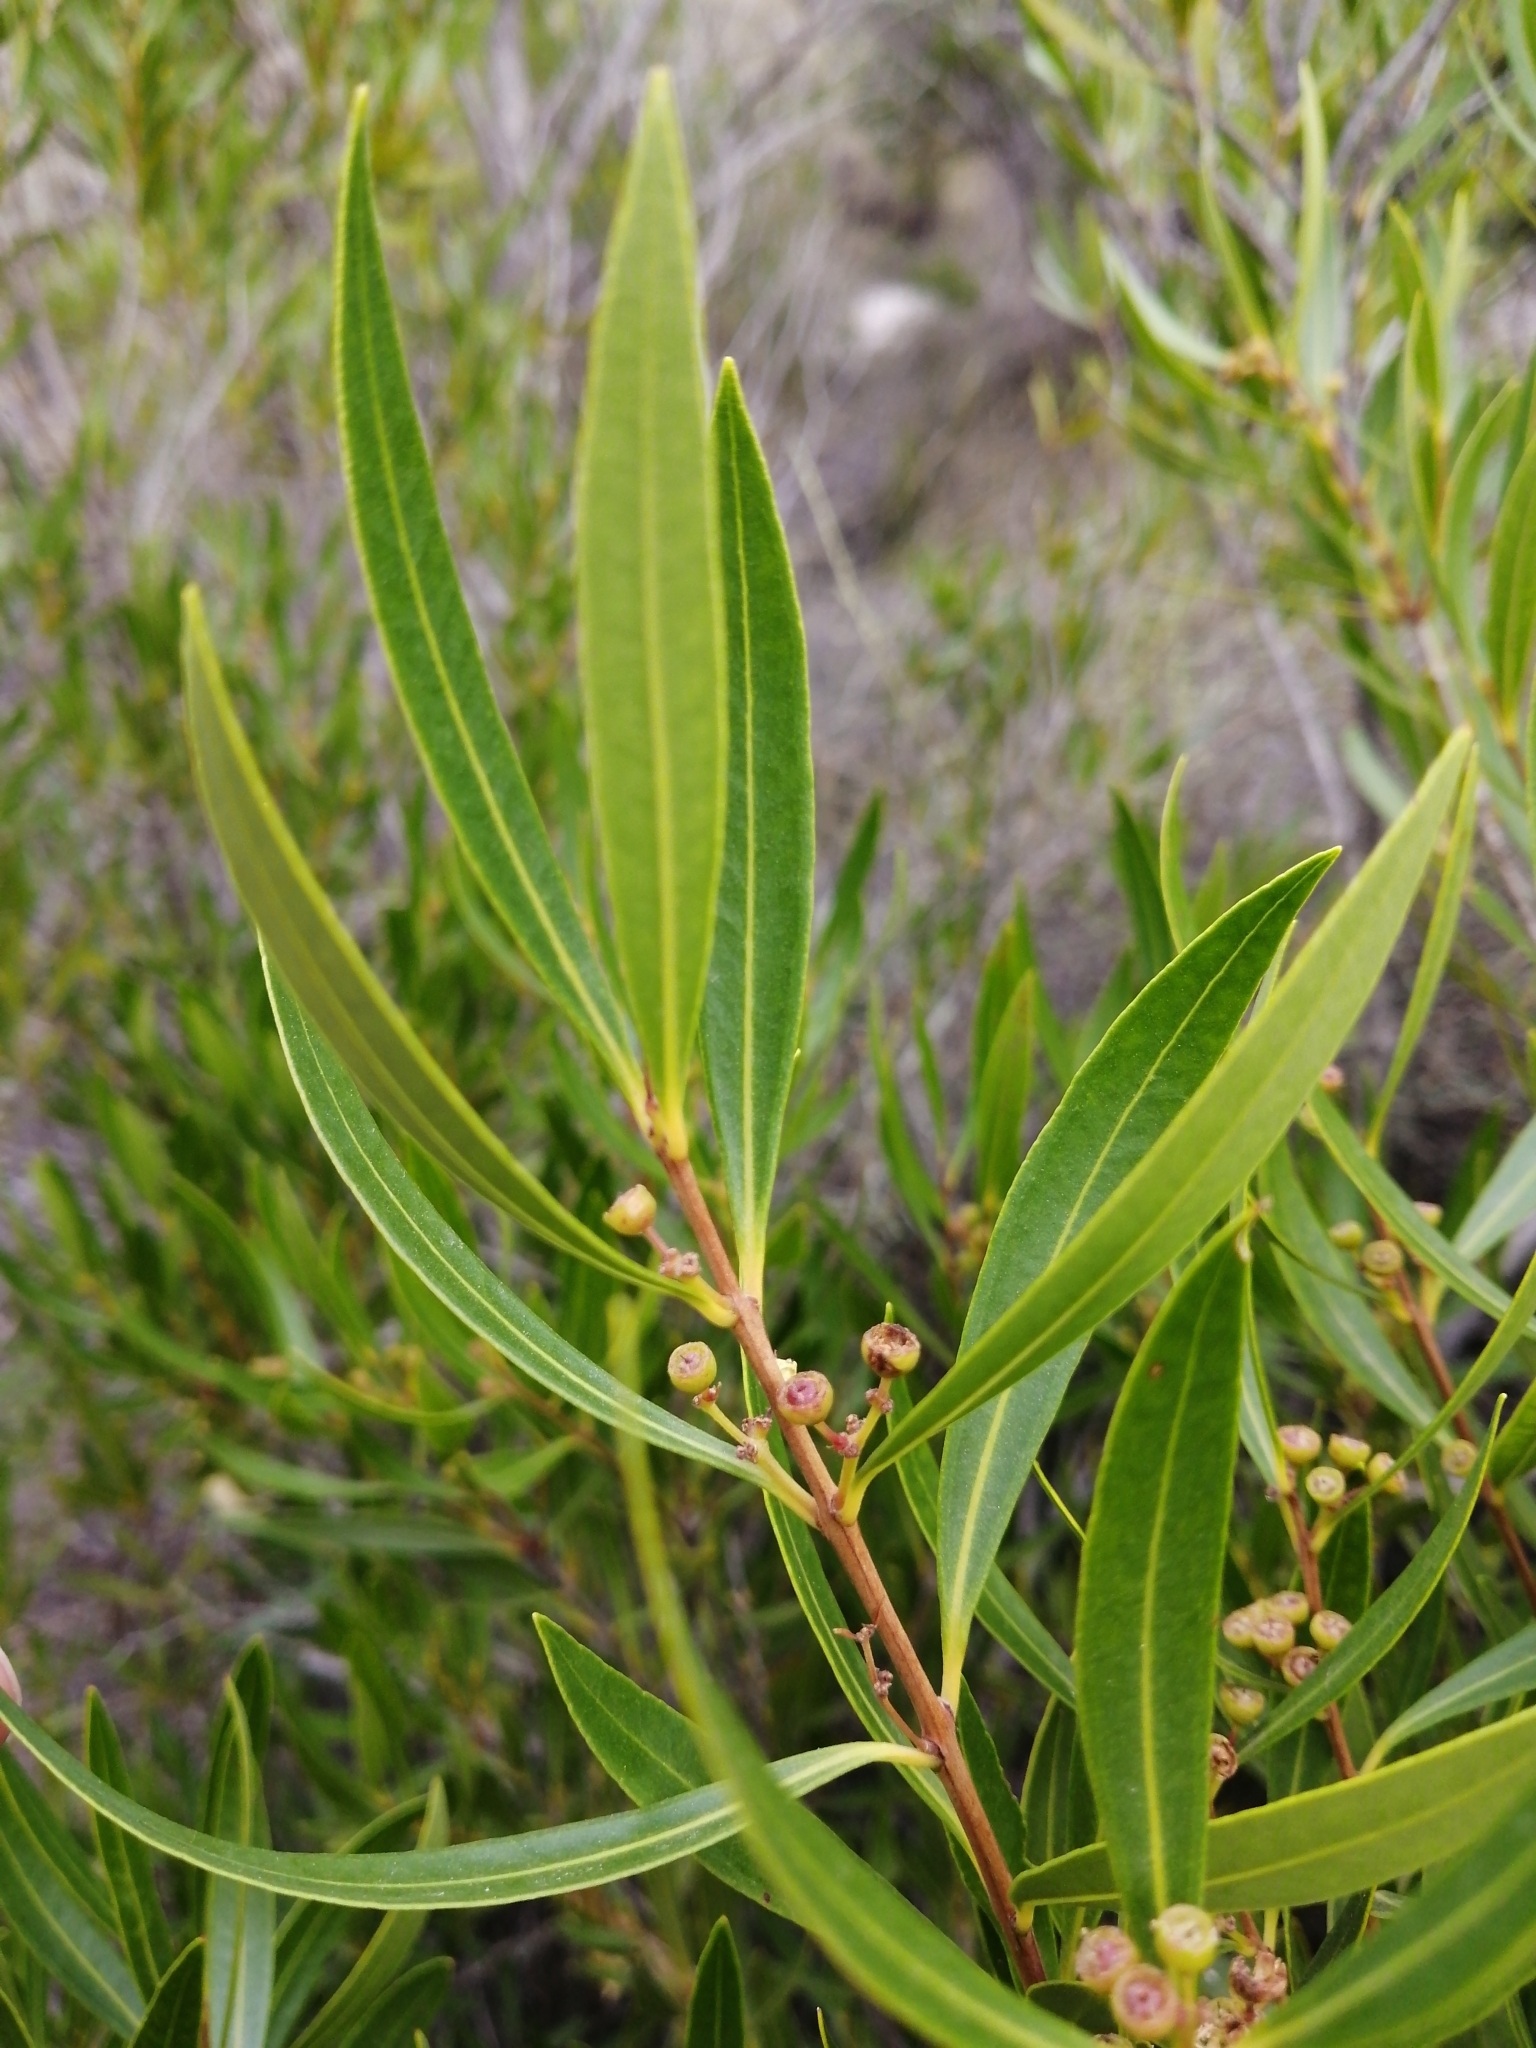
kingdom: Plantae
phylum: Tracheophyta
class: Magnoliopsida
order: Myrtales
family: Myrtaceae
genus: Callistemon
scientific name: Callistemon lanceolatus
